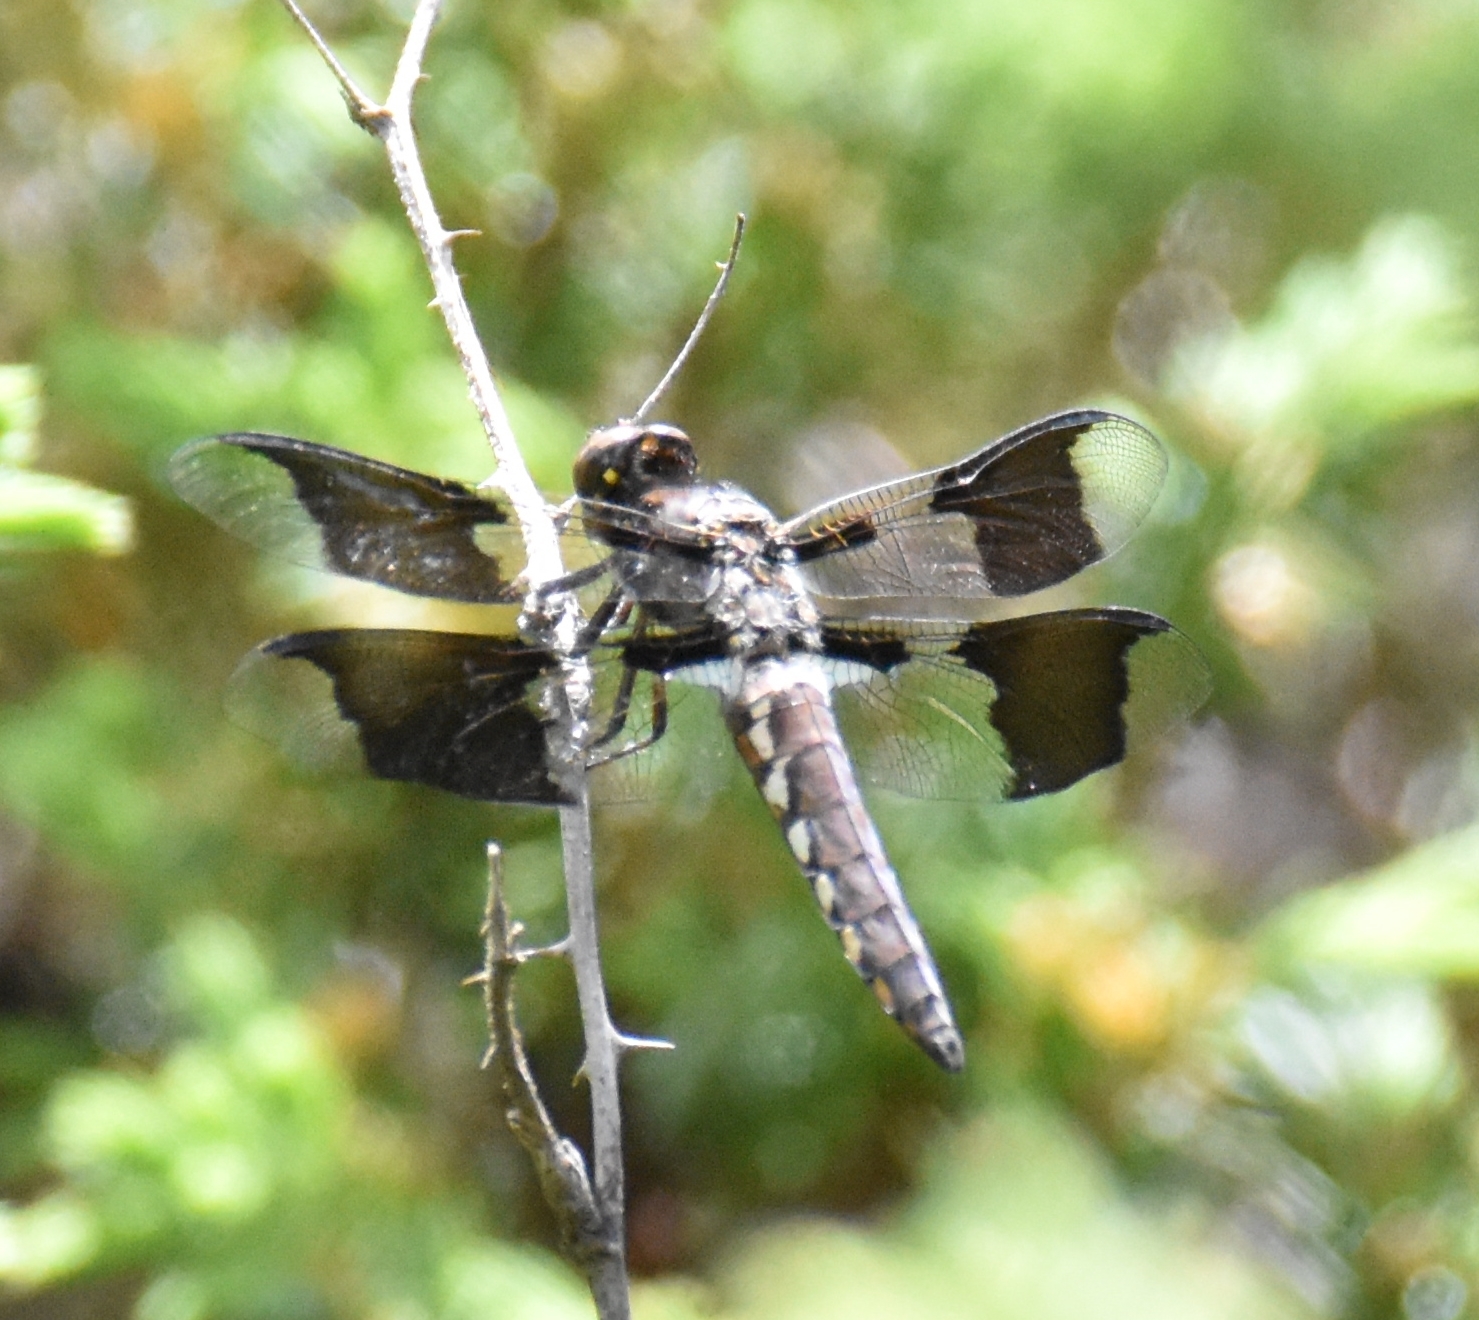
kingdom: Animalia
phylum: Arthropoda
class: Insecta
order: Odonata
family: Libellulidae
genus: Plathemis
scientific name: Plathemis lydia
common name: Common whitetail
